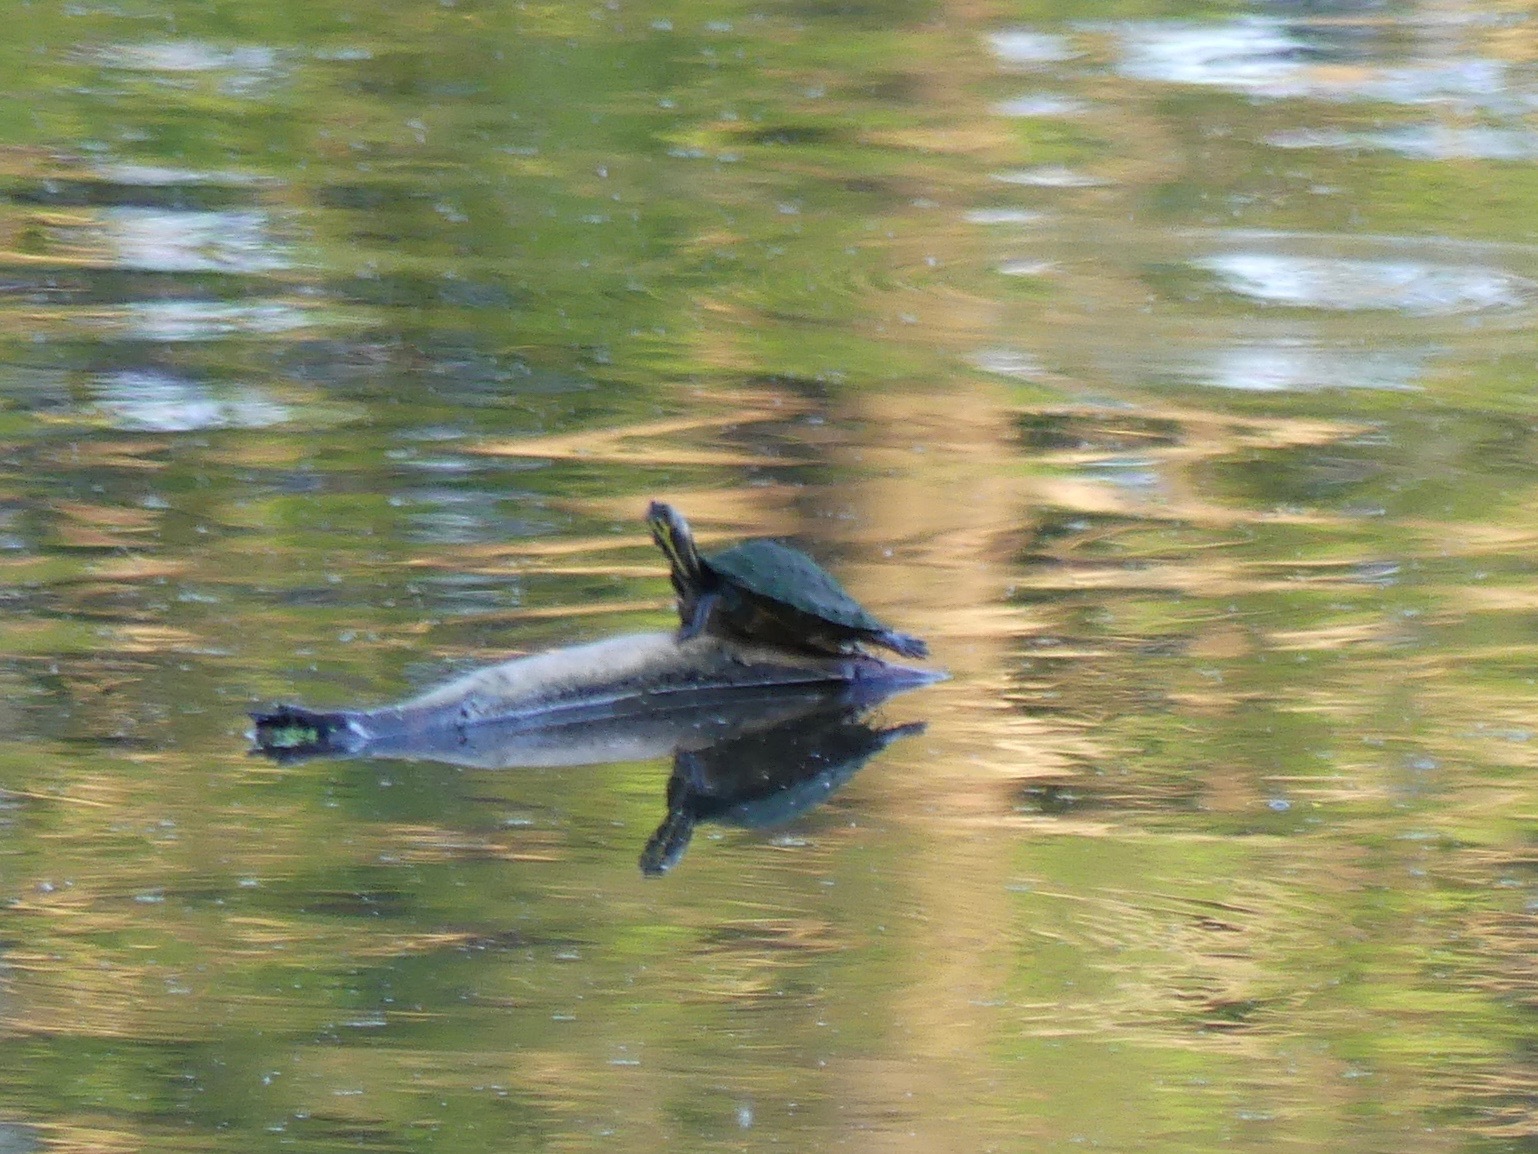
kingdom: Animalia
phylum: Chordata
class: Testudines
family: Emydidae
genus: Pseudemys
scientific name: Pseudemys concinna
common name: Eastern river cooter
